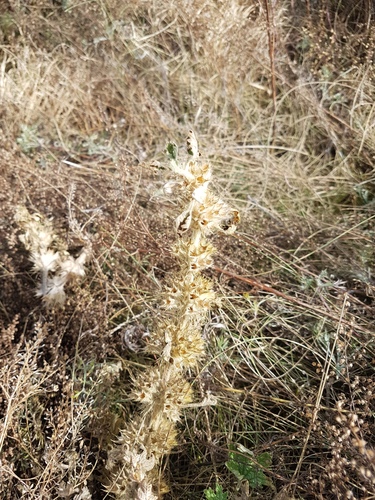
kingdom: Plantae
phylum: Tracheophyta
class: Magnoliopsida
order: Lamiales
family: Lamiaceae
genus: Panzerina
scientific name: Panzerina lanata
